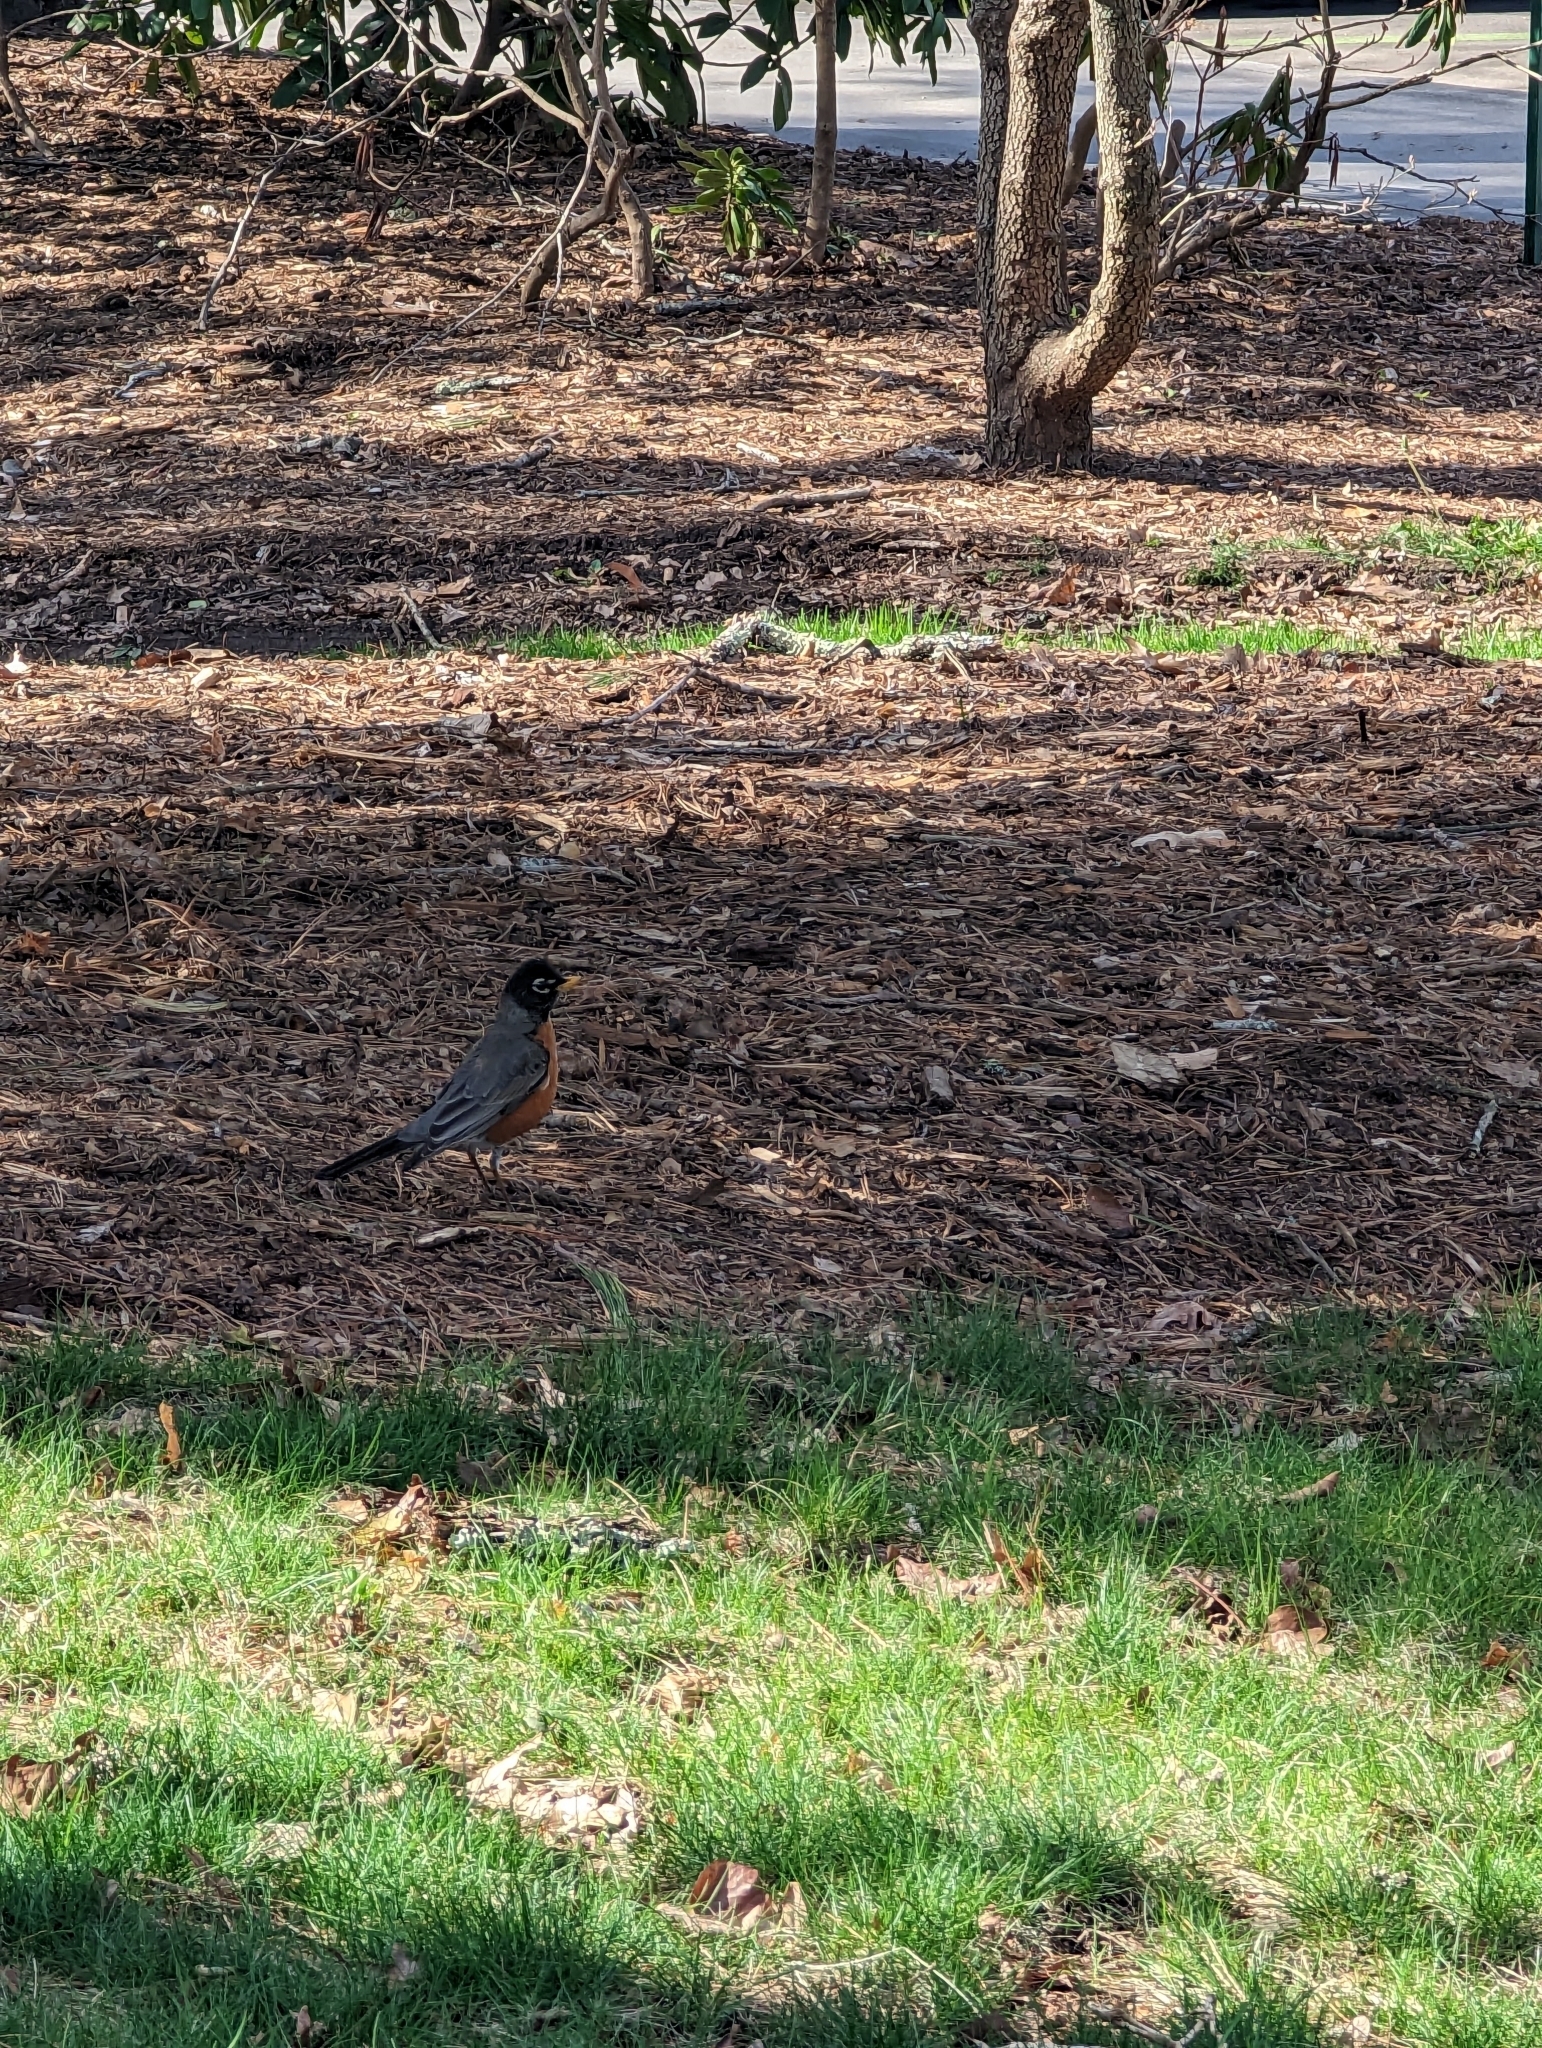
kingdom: Animalia
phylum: Chordata
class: Aves
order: Passeriformes
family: Turdidae
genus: Turdus
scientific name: Turdus migratorius
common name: American robin
